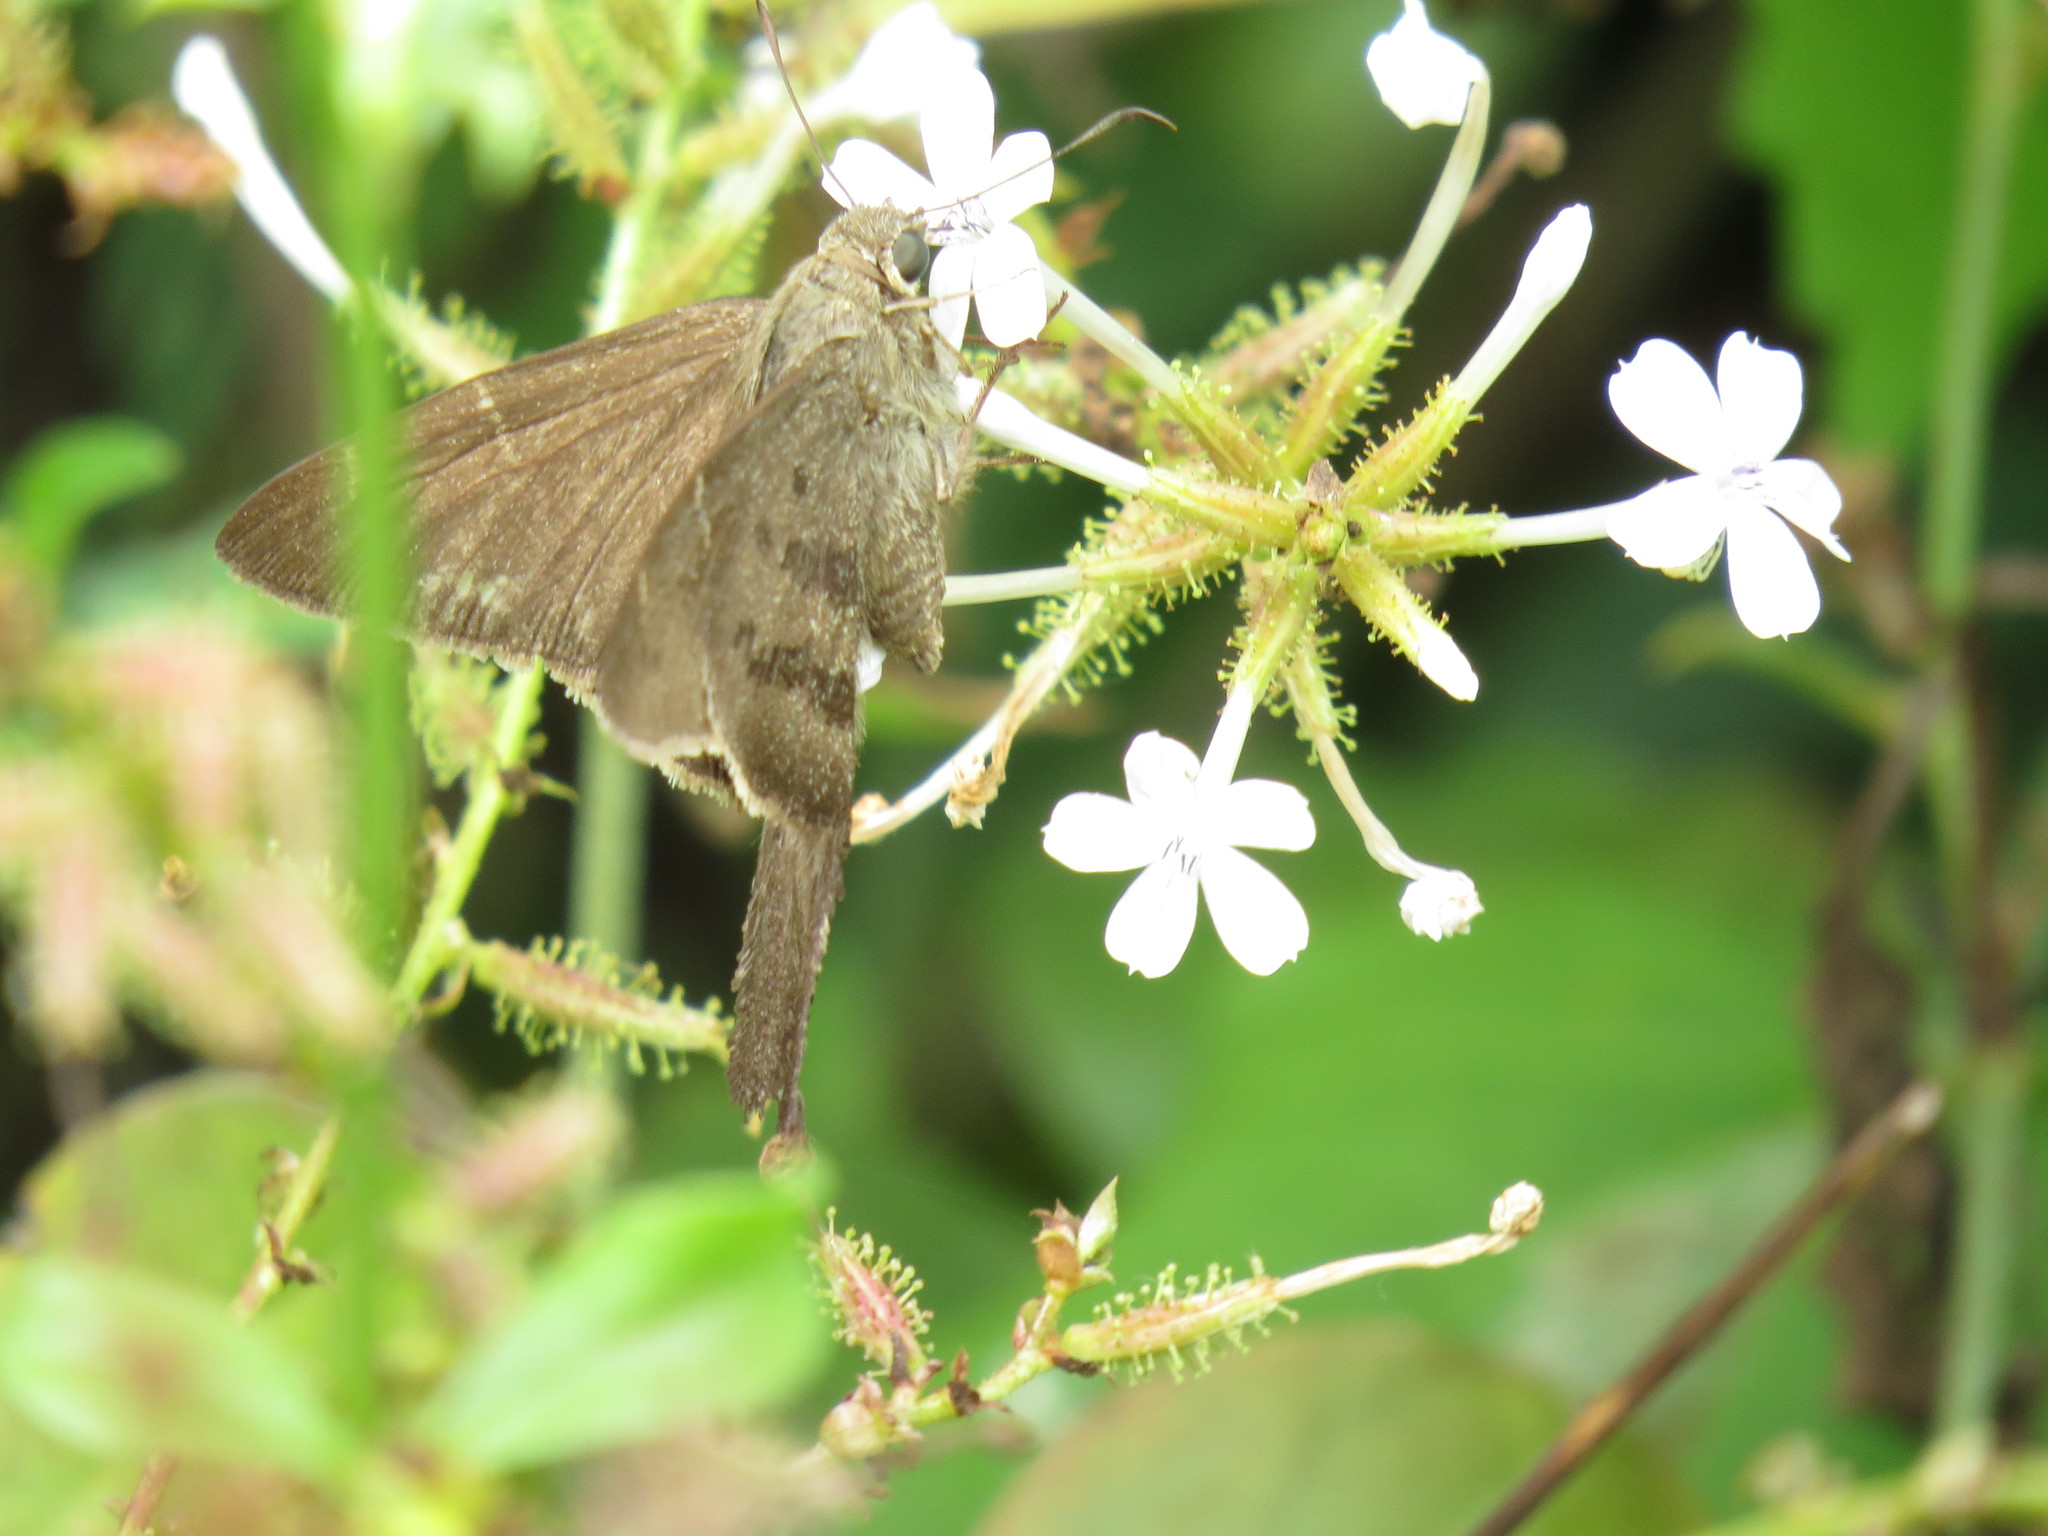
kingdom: Animalia
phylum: Arthropoda
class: Insecta
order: Lepidoptera
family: Hesperiidae
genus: Urbanus
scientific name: Urbanus procne
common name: Brown longtail
